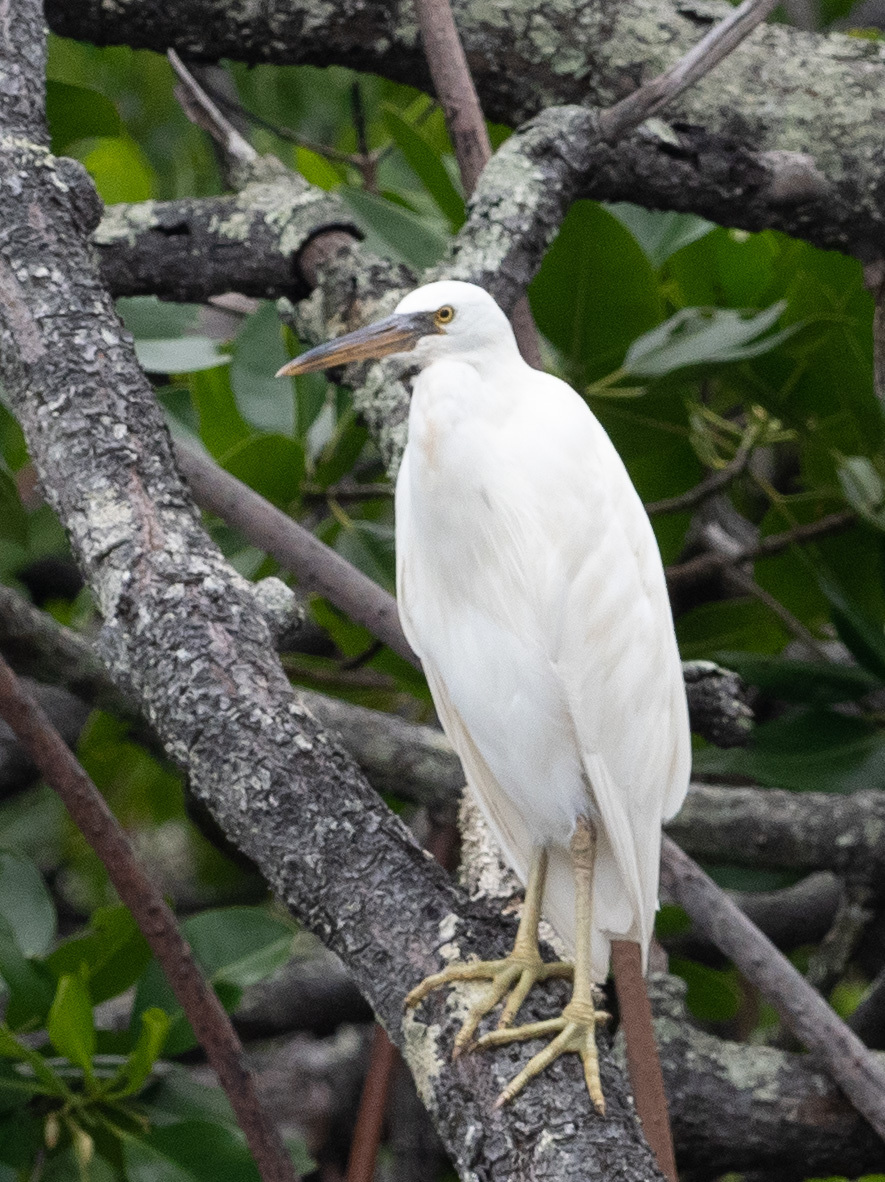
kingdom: Animalia
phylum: Chordata
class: Aves
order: Pelecaniformes
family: Ardeidae
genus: Egretta
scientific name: Egretta sacra
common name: Pacific reef heron
